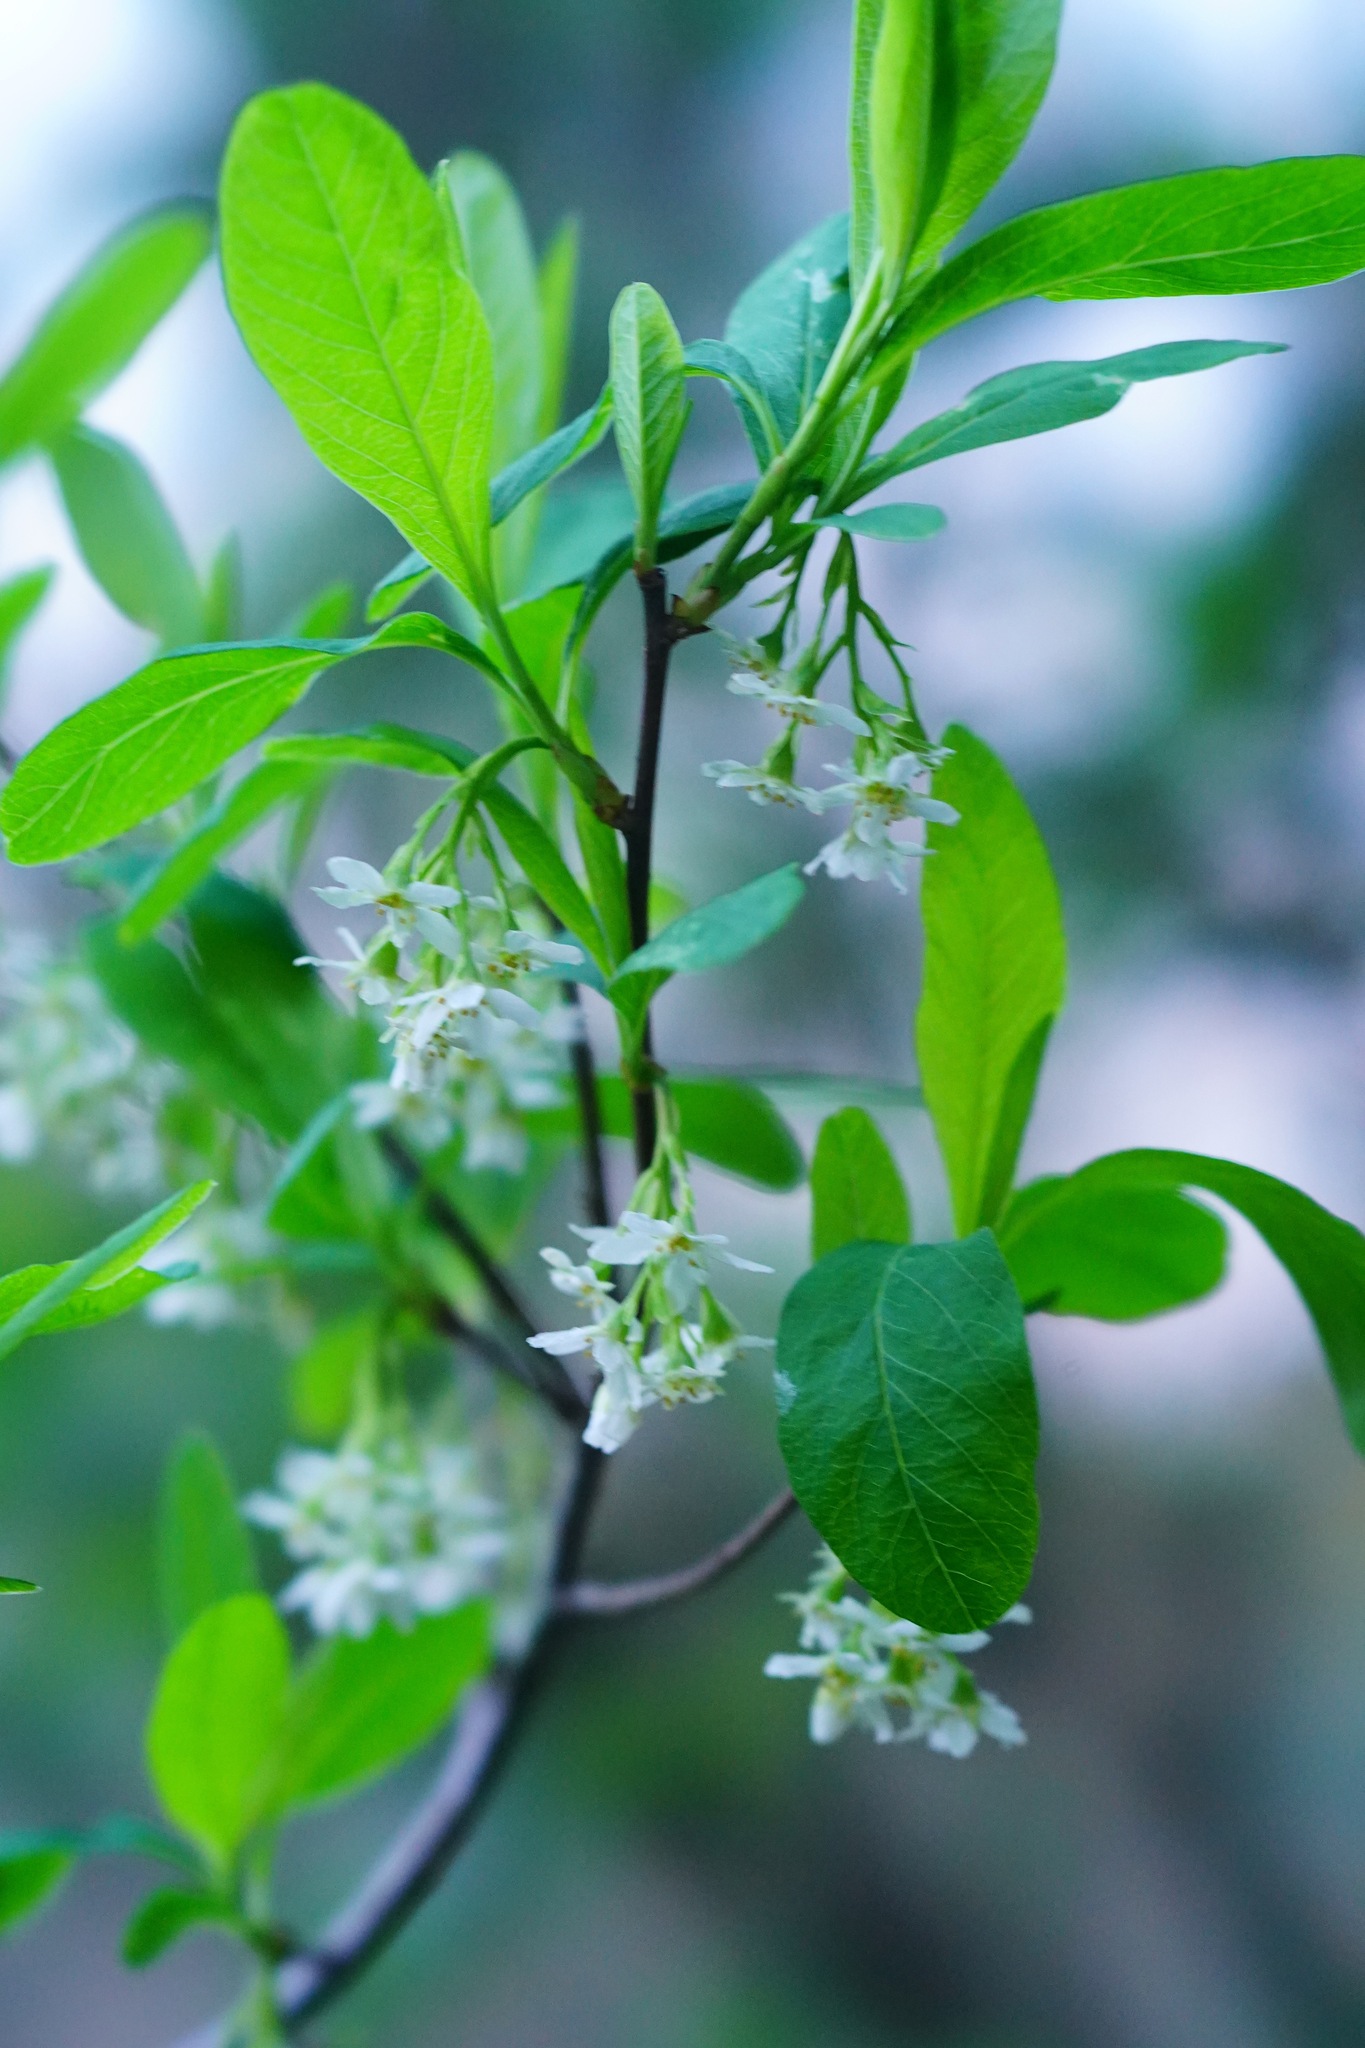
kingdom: Plantae
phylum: Tracheophyta
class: Magnoliopsida
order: Rosales
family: Rosaceae
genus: Oemleria
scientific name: Oemleria cerasiformis
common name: Osoberry
